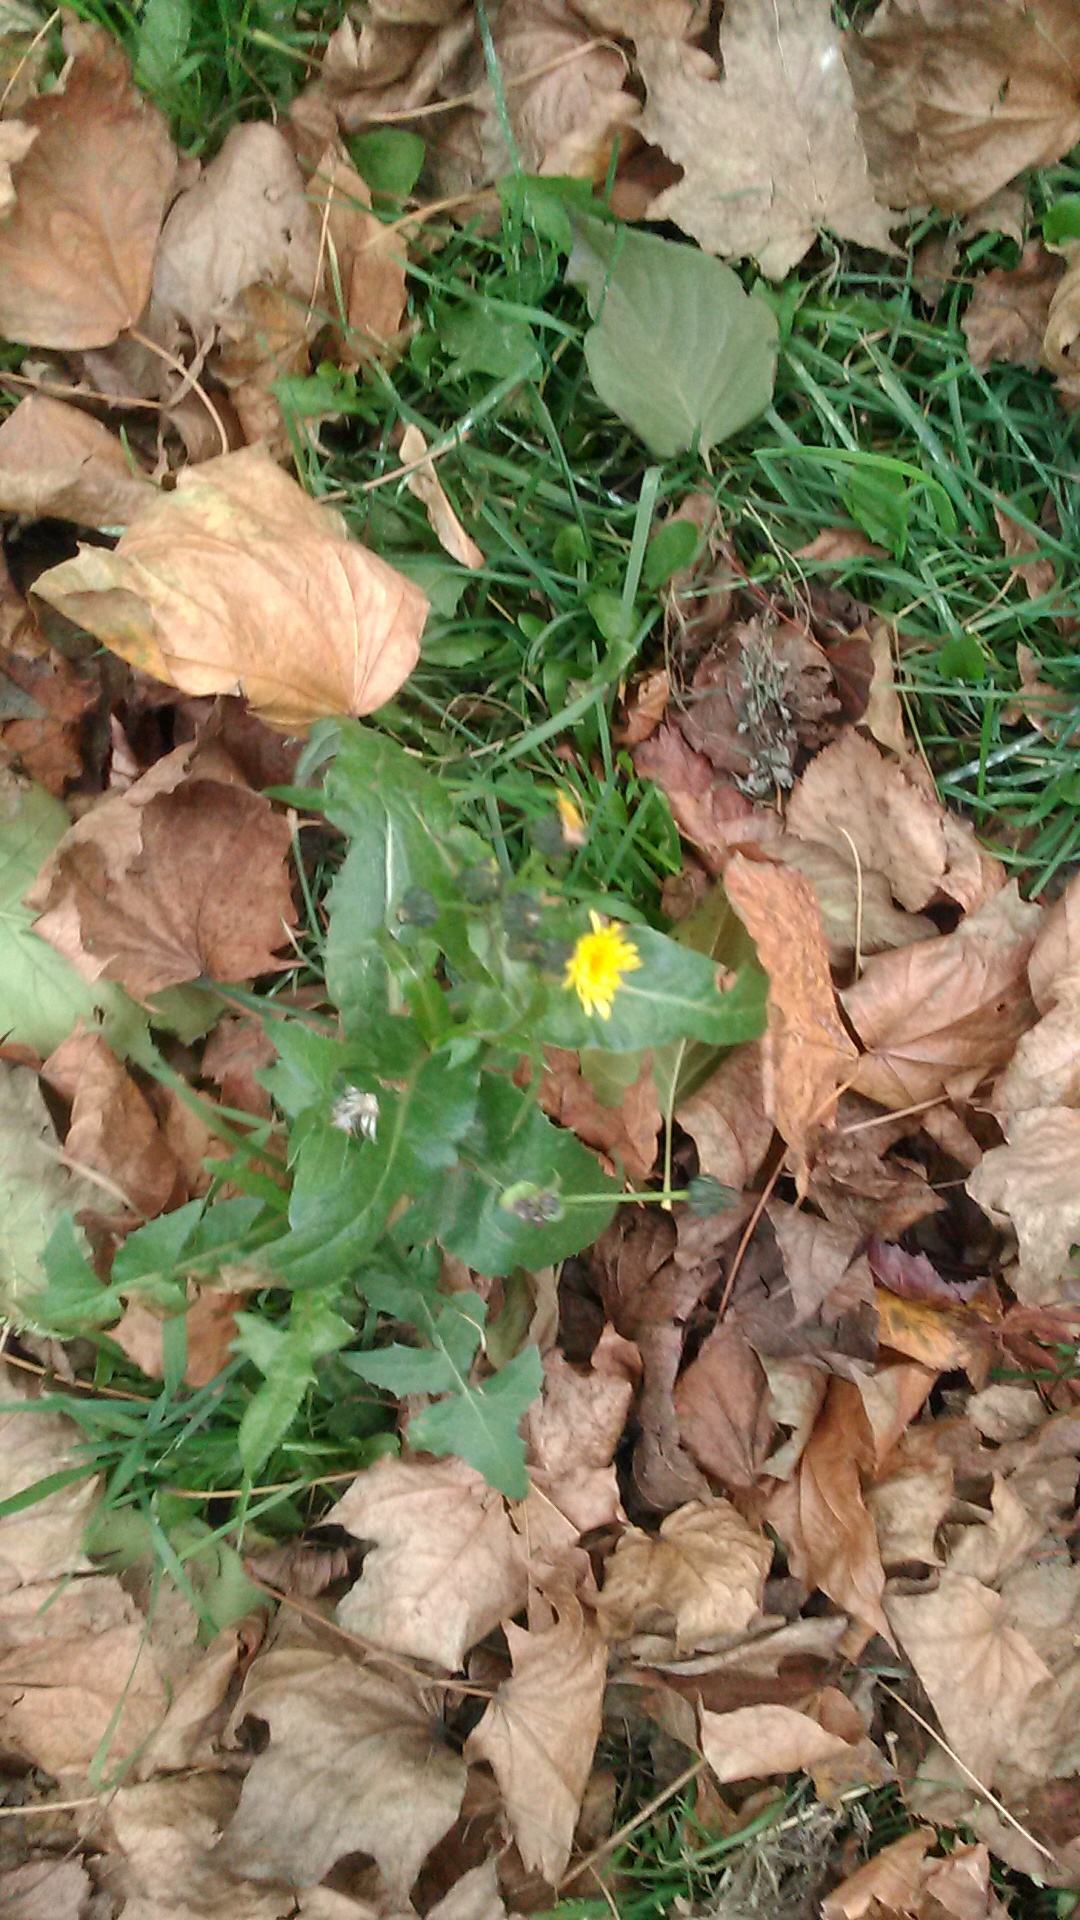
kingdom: Plantae
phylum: Tracheophyta
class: Magnoliopsida
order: Asterales
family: Asteraceae
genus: Sonchus
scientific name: Sonchus oleraceus
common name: Common sowthistle
